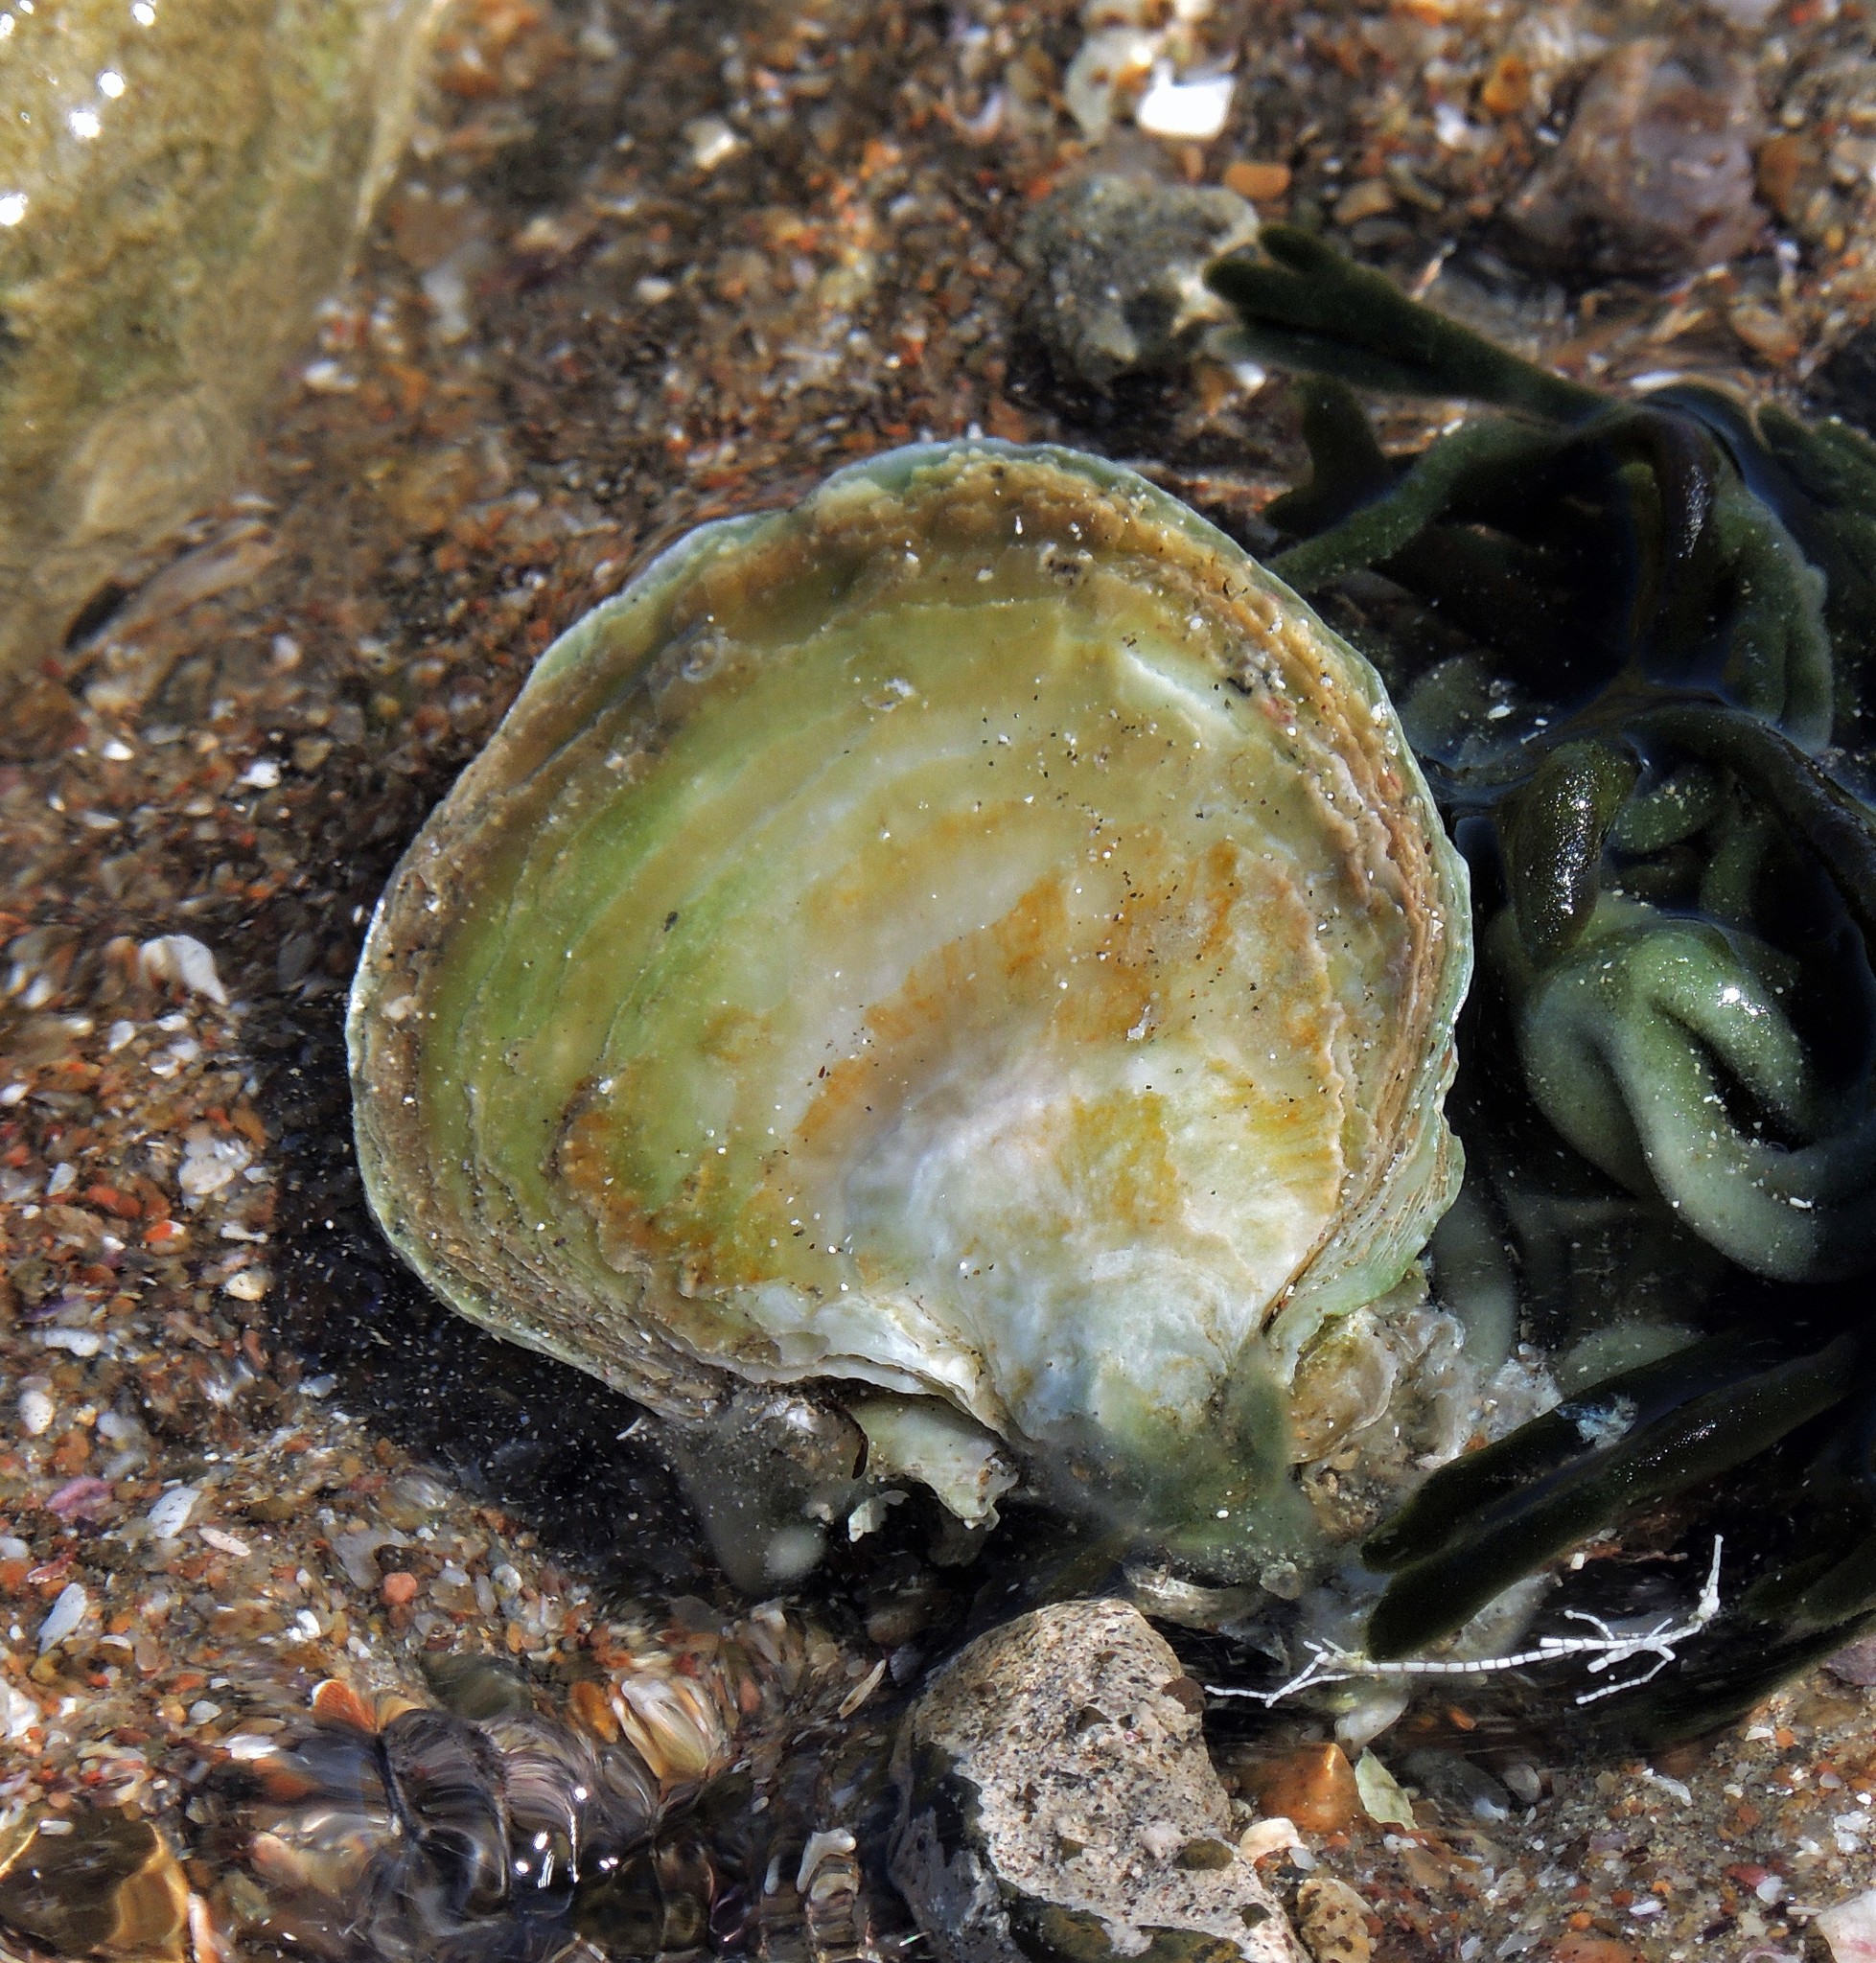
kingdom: Animalia
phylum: Mollusca
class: Bivalvia
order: Ostreida
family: Ostreidae
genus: Ostrea
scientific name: Ostrea puelchana
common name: Argentine flat oyster
